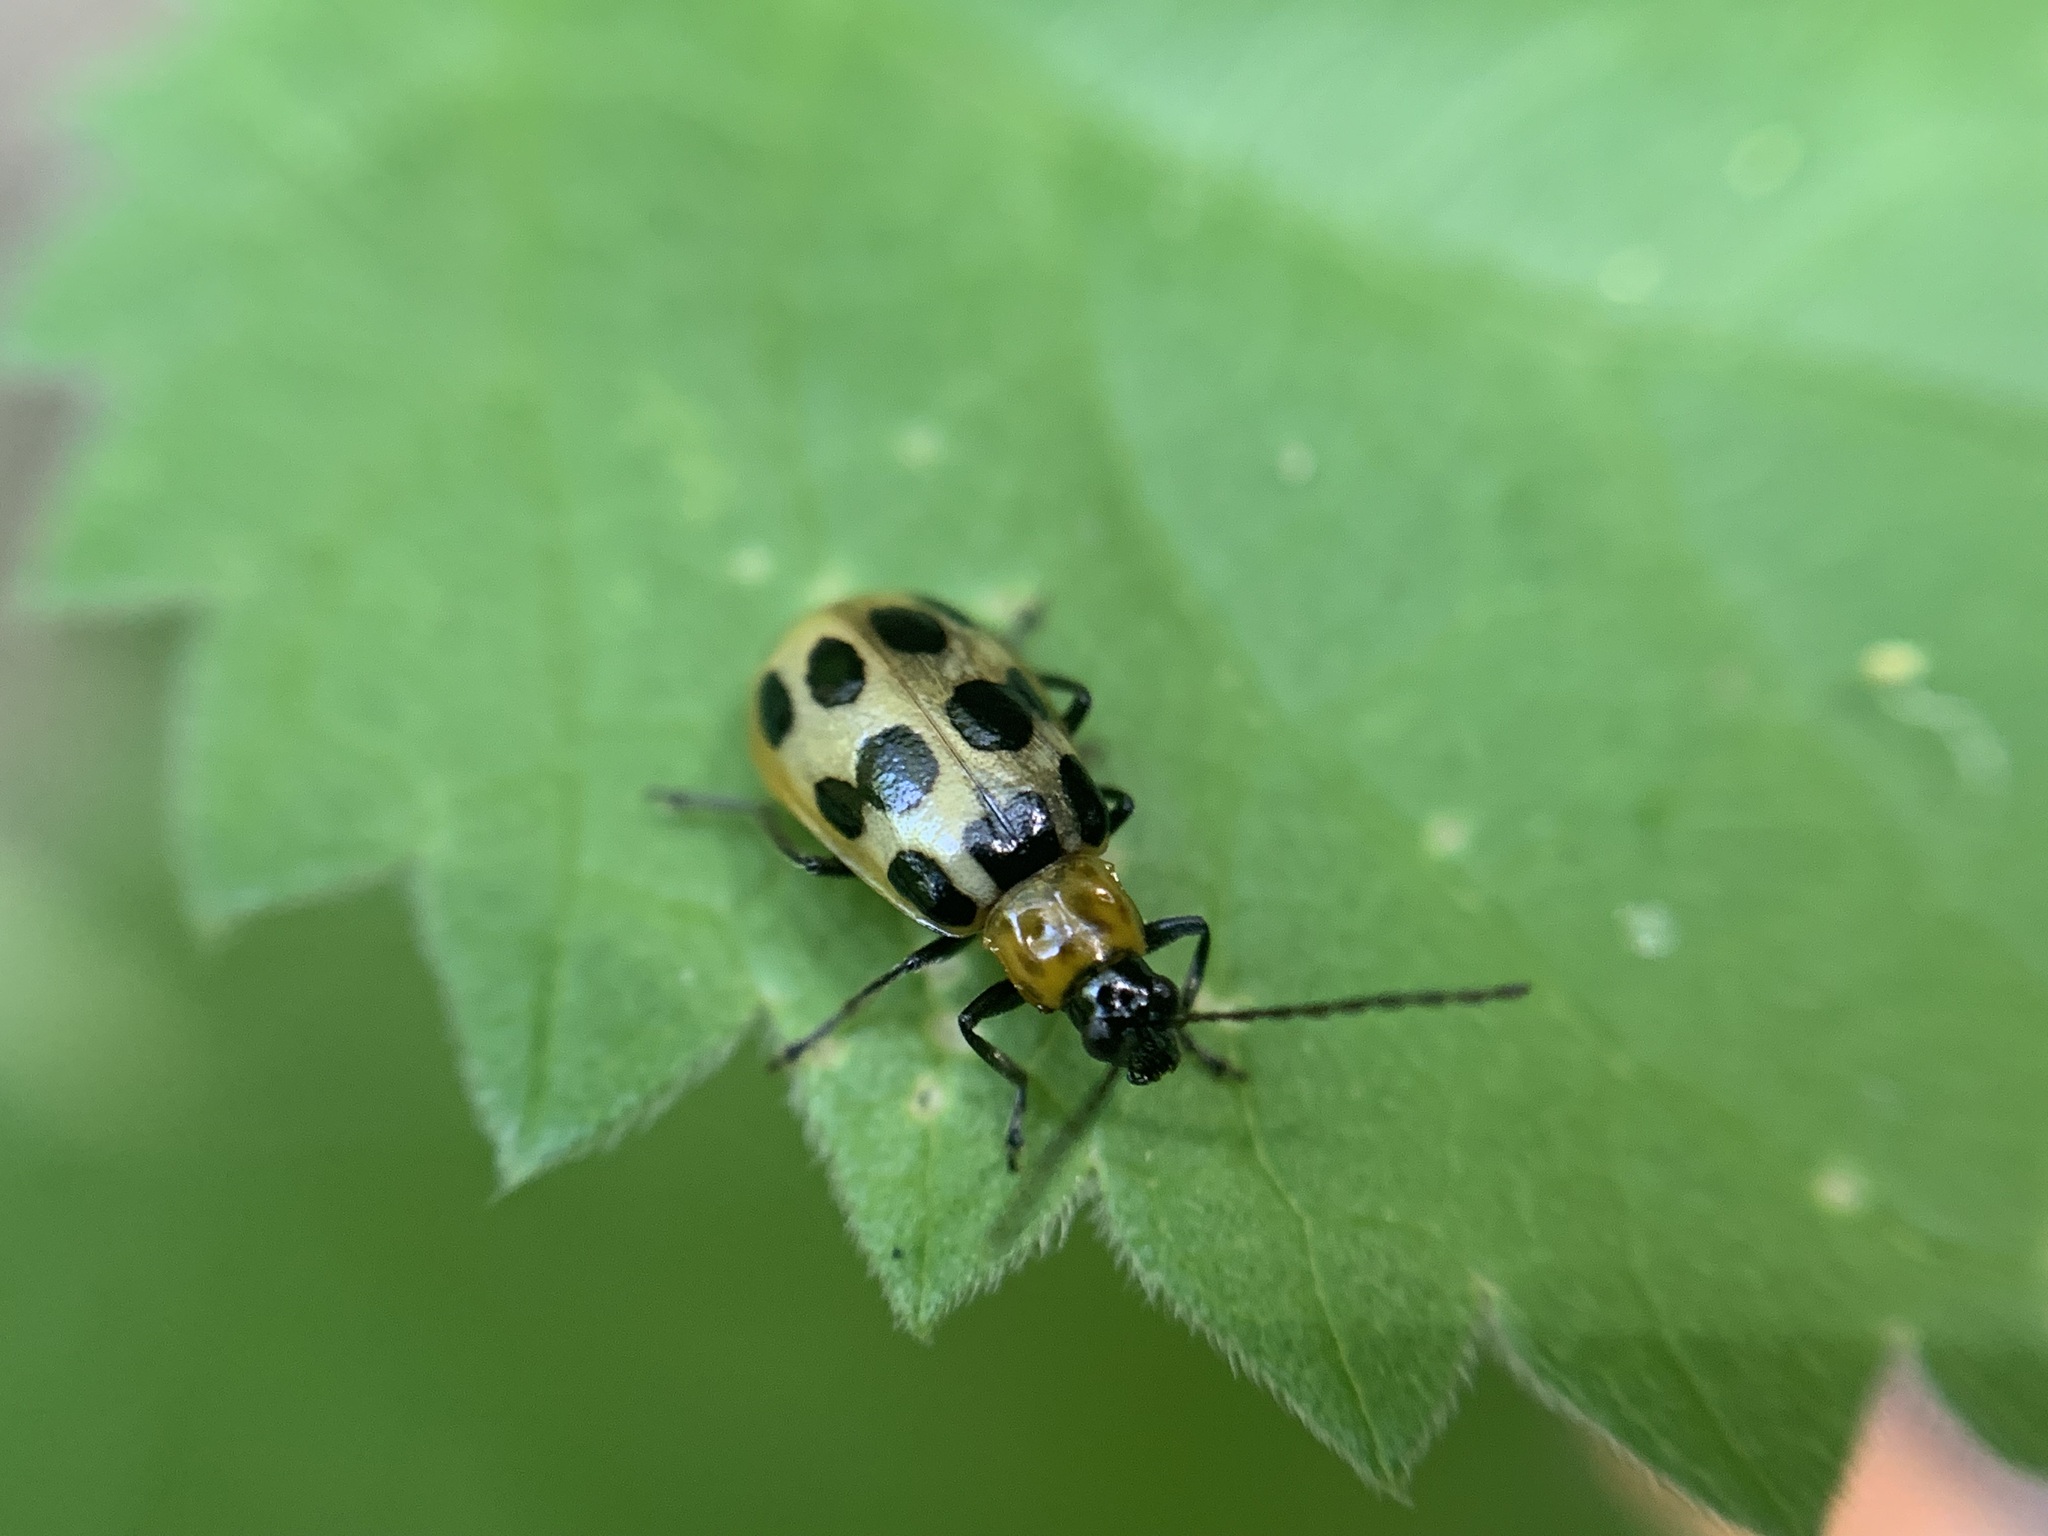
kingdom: Animalia
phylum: Arthropoda
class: Insecta
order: Coleoptera
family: Chrysomelidae
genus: Diabrotica
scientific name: Diabrotica undecimpunctata
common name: Spotted cucumber beetle
